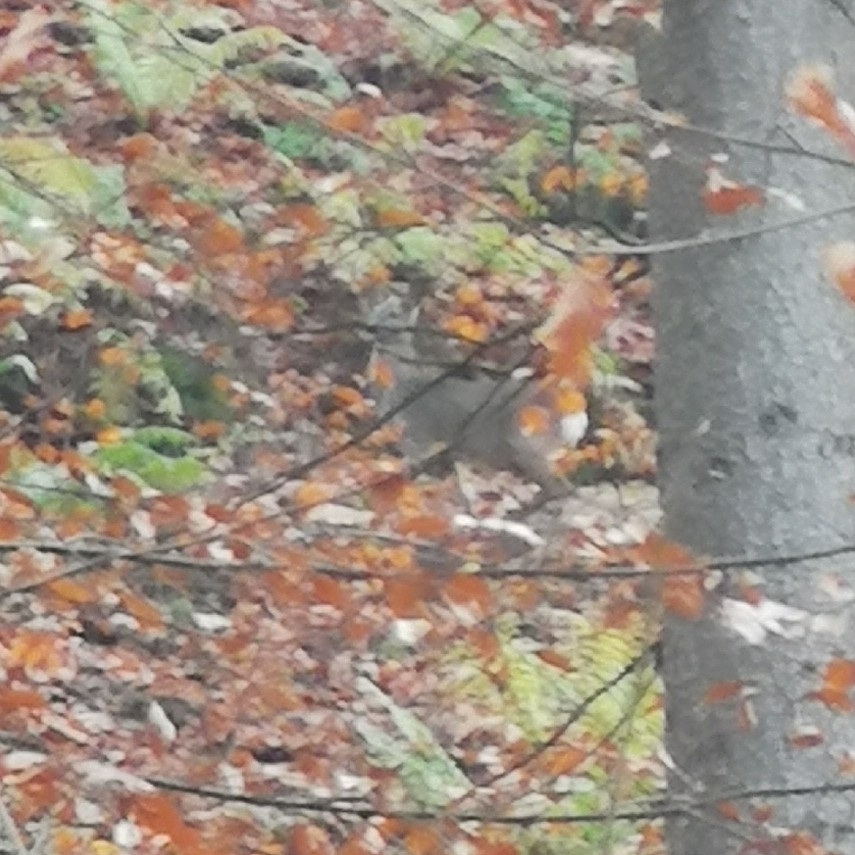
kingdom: Animalia
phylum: Chordata
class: Mammalia
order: Artiodactyla
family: Cervidae
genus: Capreolus
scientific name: Capreolus capreolus
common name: Western roe deer
